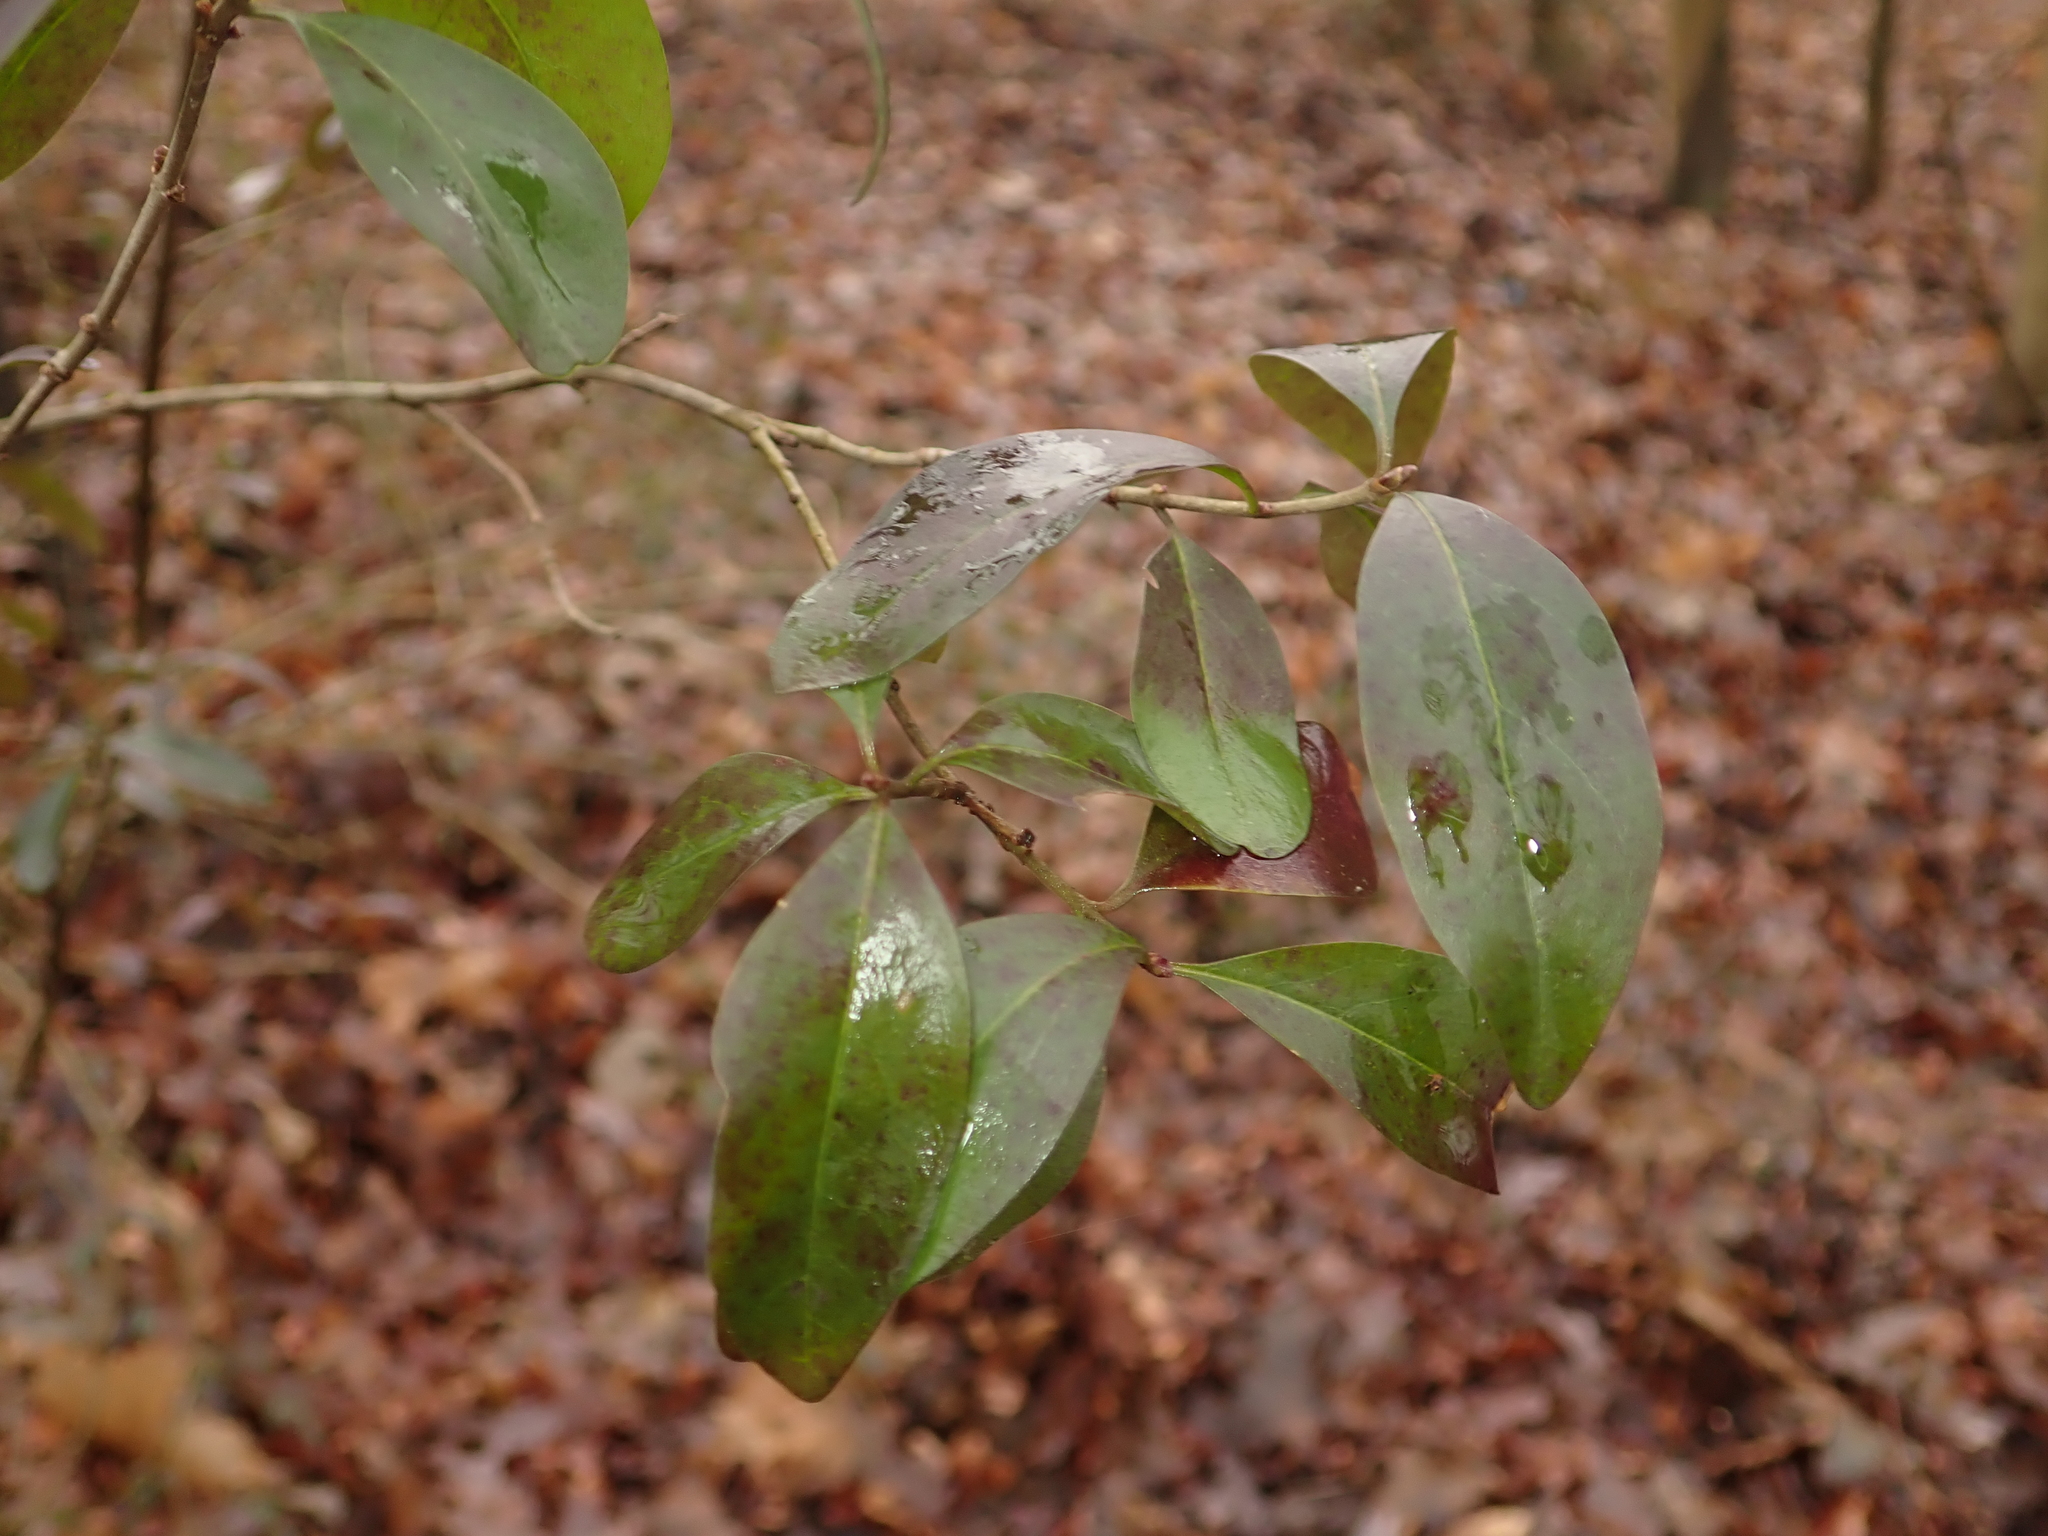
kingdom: Plantae
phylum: Tracheophyta
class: Magnoliopsida
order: Lamiales
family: Oleaceae
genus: Ligustrum
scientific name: Ligustrum vulgare
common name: Wild privet
